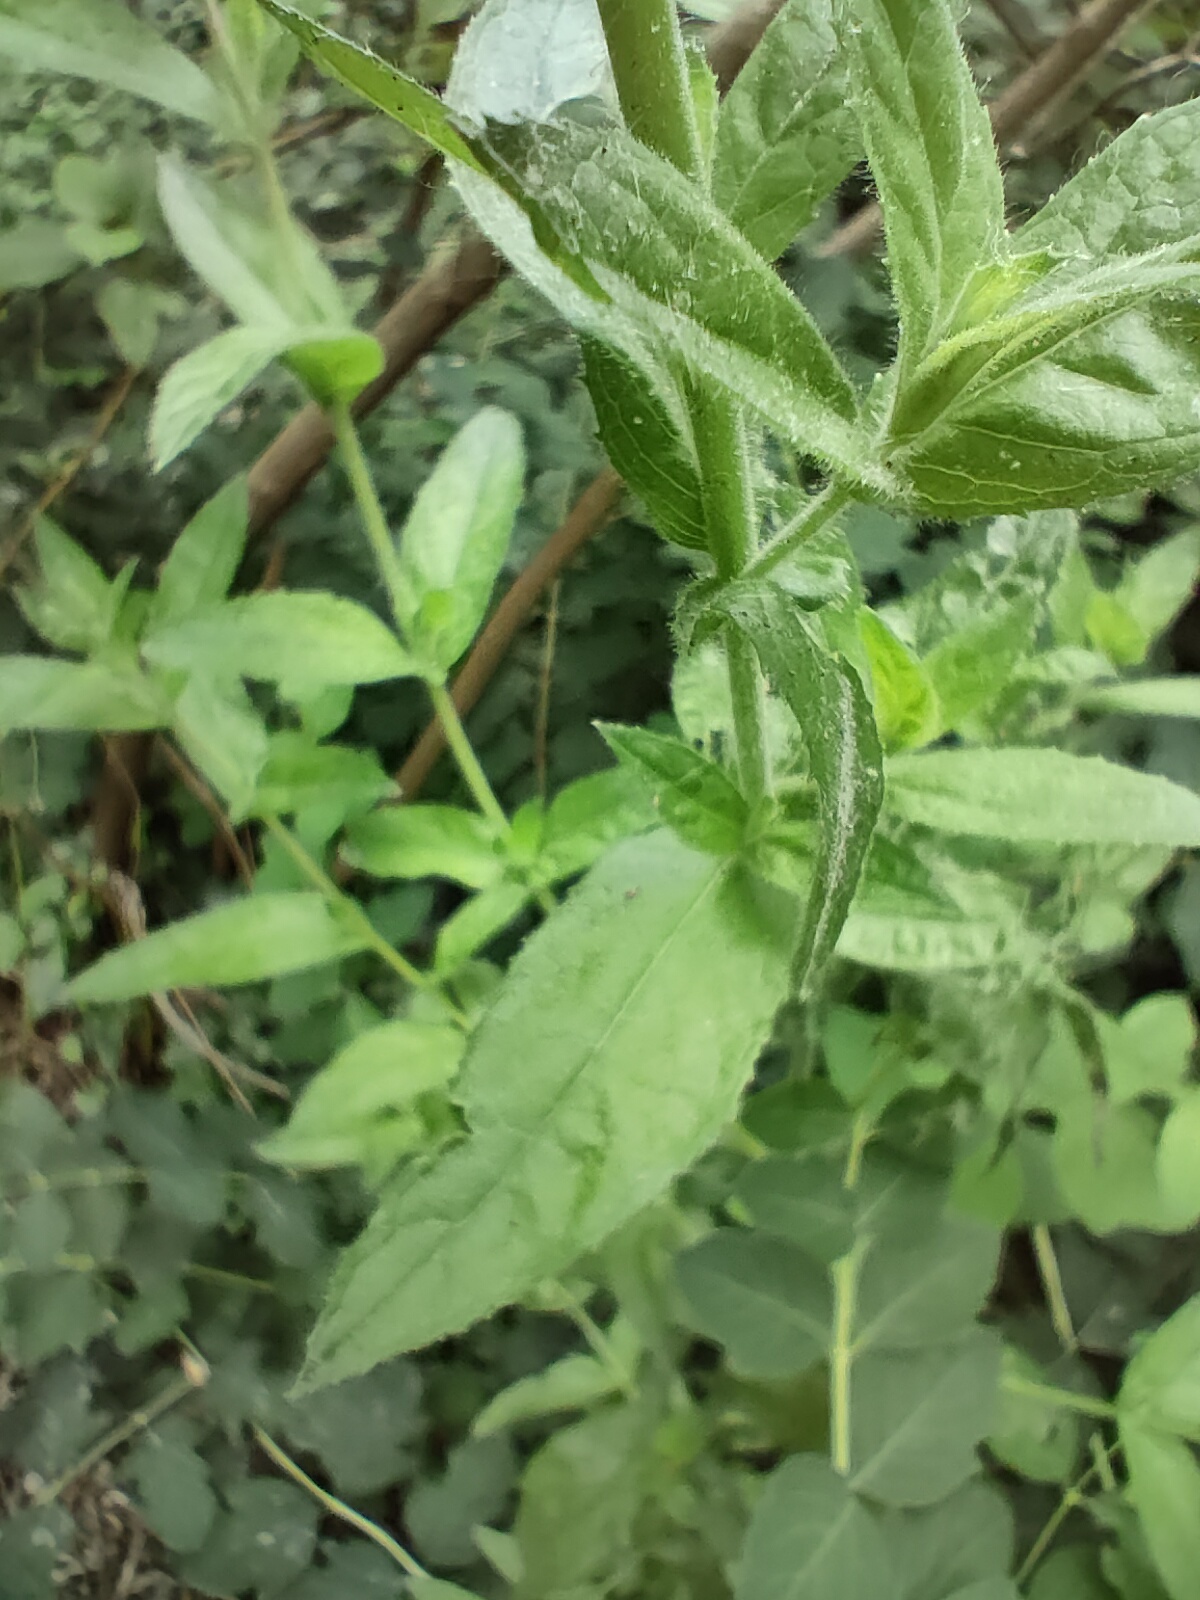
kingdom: Plantae
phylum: Tracheophyta
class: Magnoliopsida
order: Myrtales
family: Onagraceae
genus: Epilobium
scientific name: Epilobium hirsutum
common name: Great willowherb
